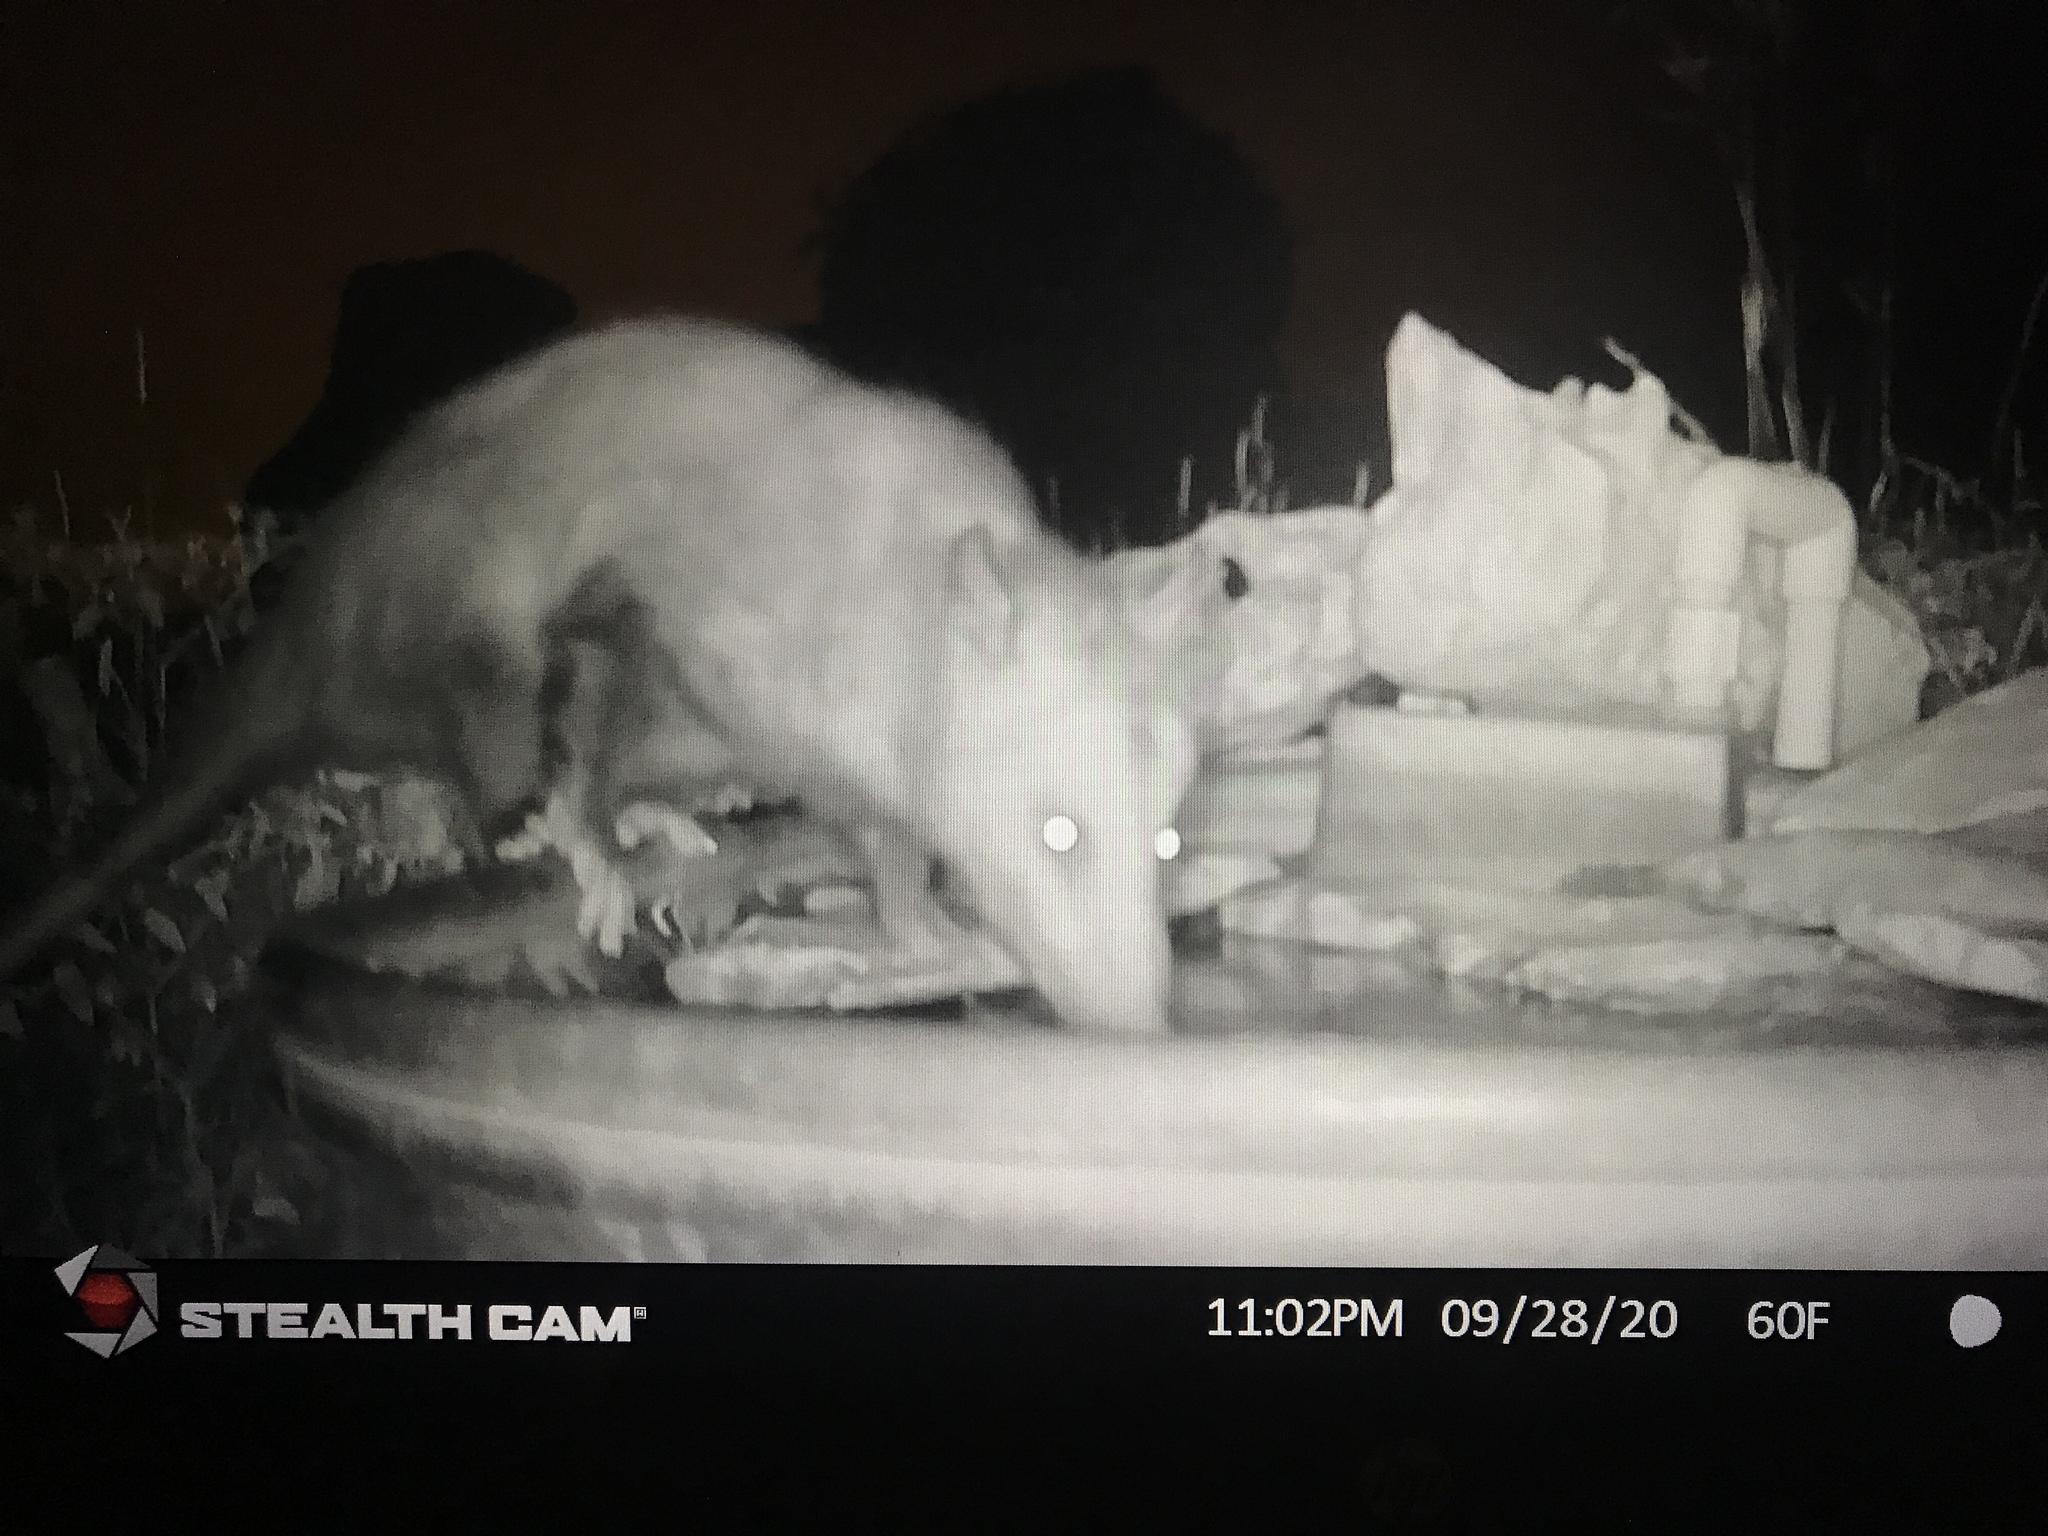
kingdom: Animalia
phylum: Chordata
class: Mammalia
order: Didelphimorphia
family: Didelphidae
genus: Didelphis
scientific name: Didelphis virginiana
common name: Virginia opossum
